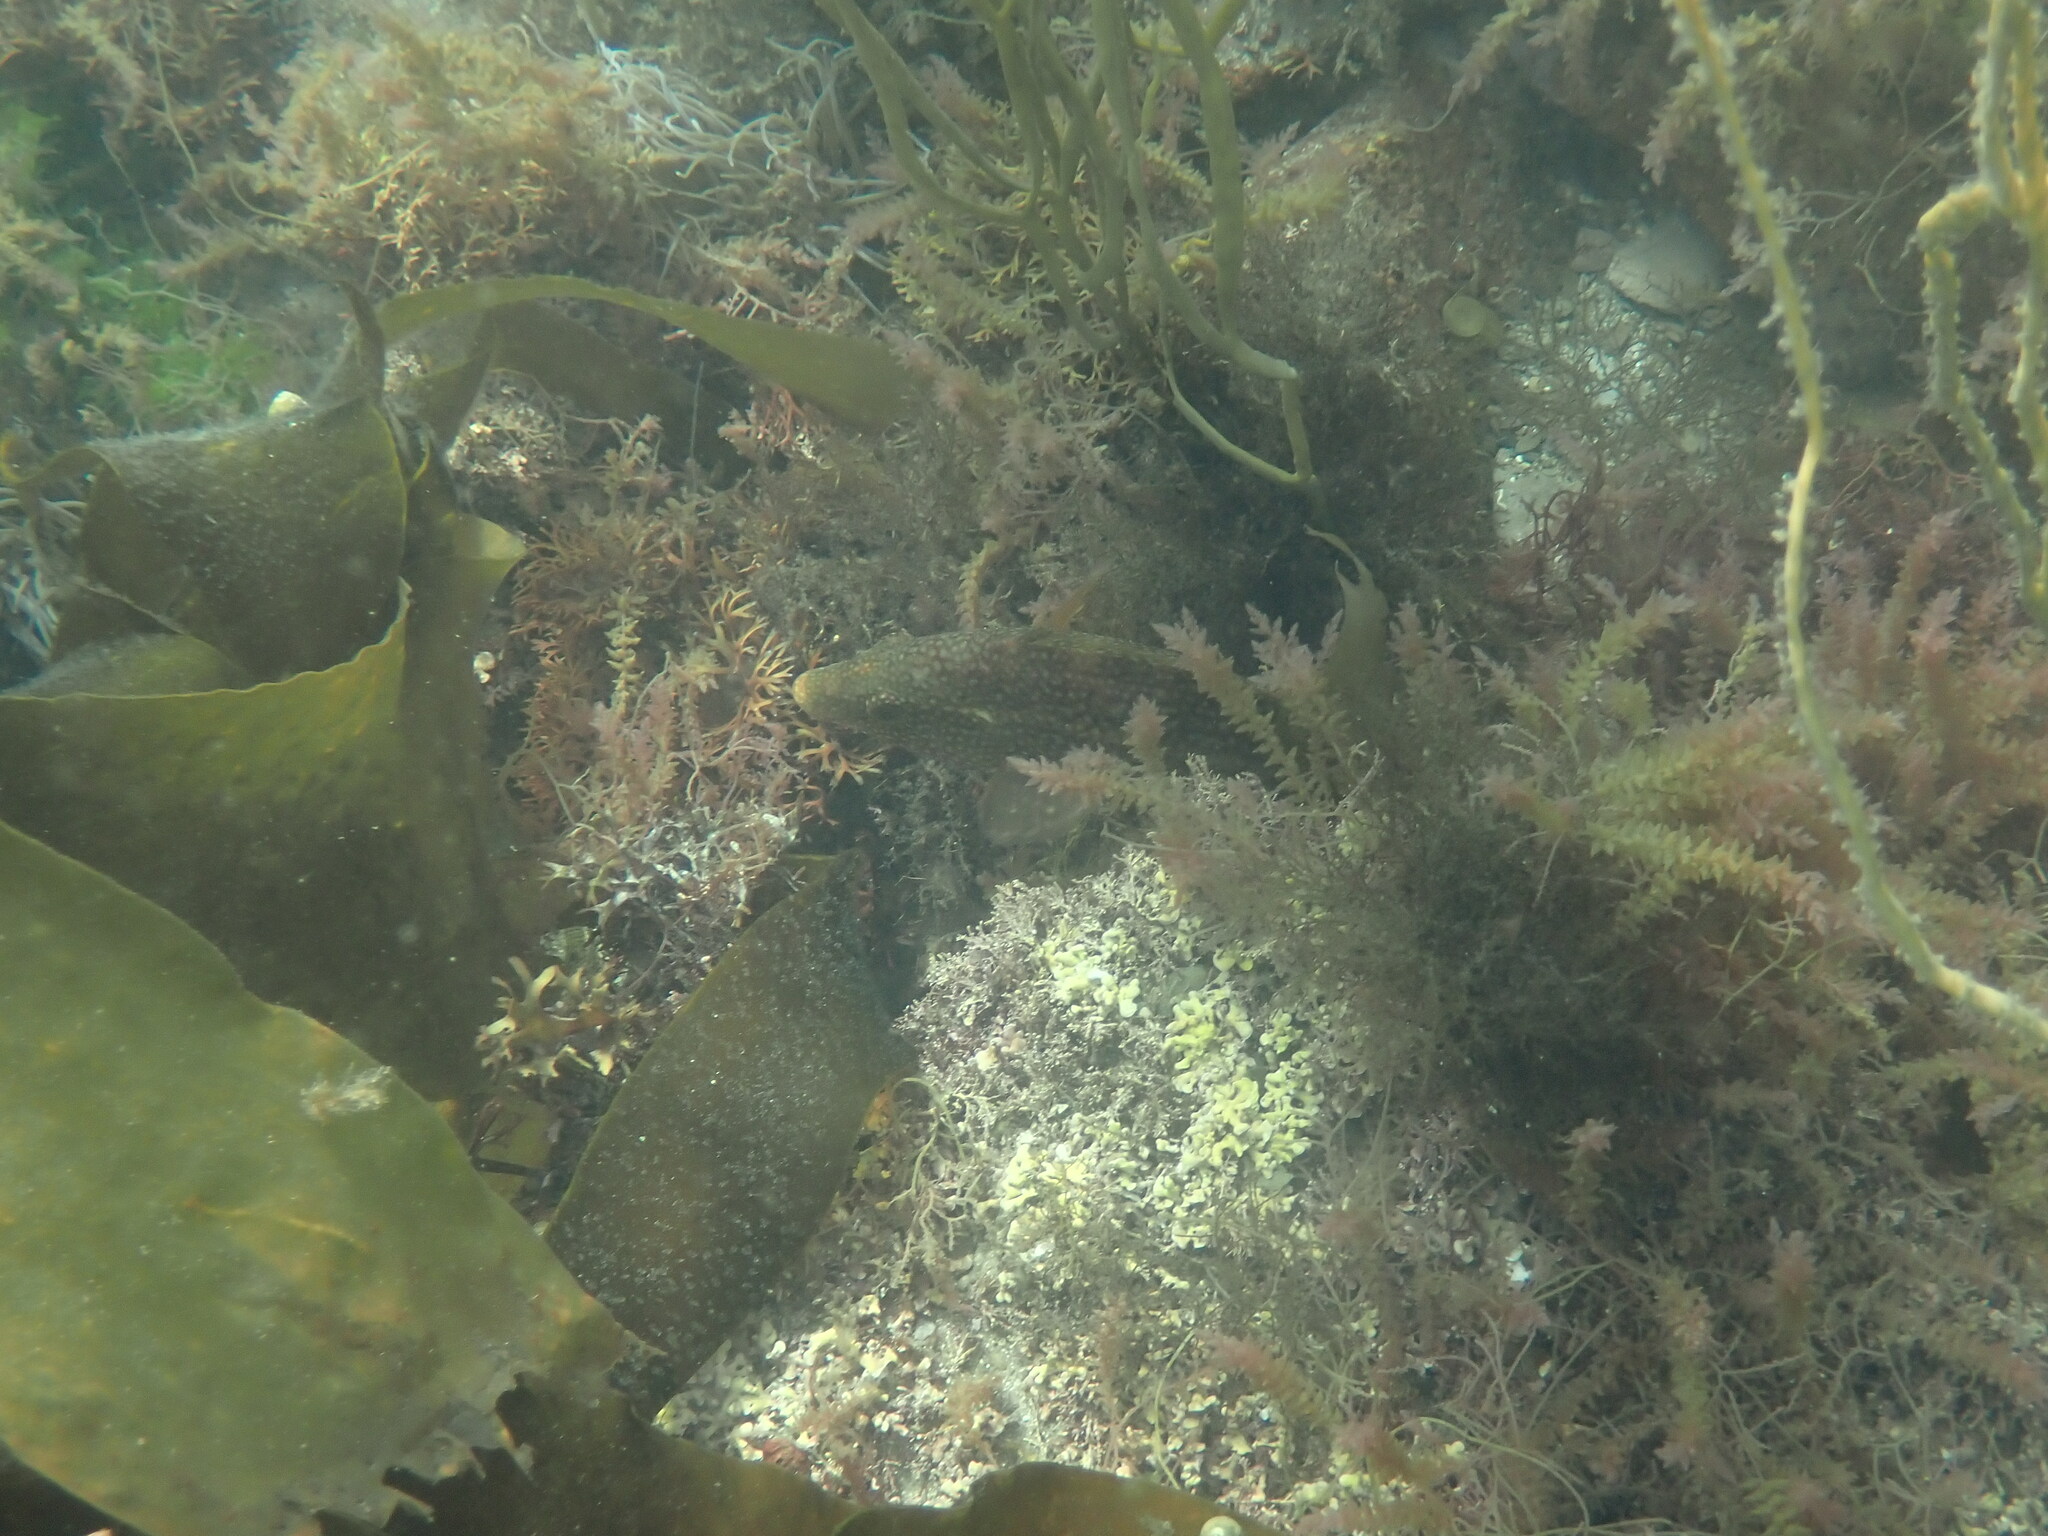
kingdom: Animalia
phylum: Chordata
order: Perciformes
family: Labridae
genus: Labrus
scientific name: Labrus bergylta
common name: Ballan wrasse
